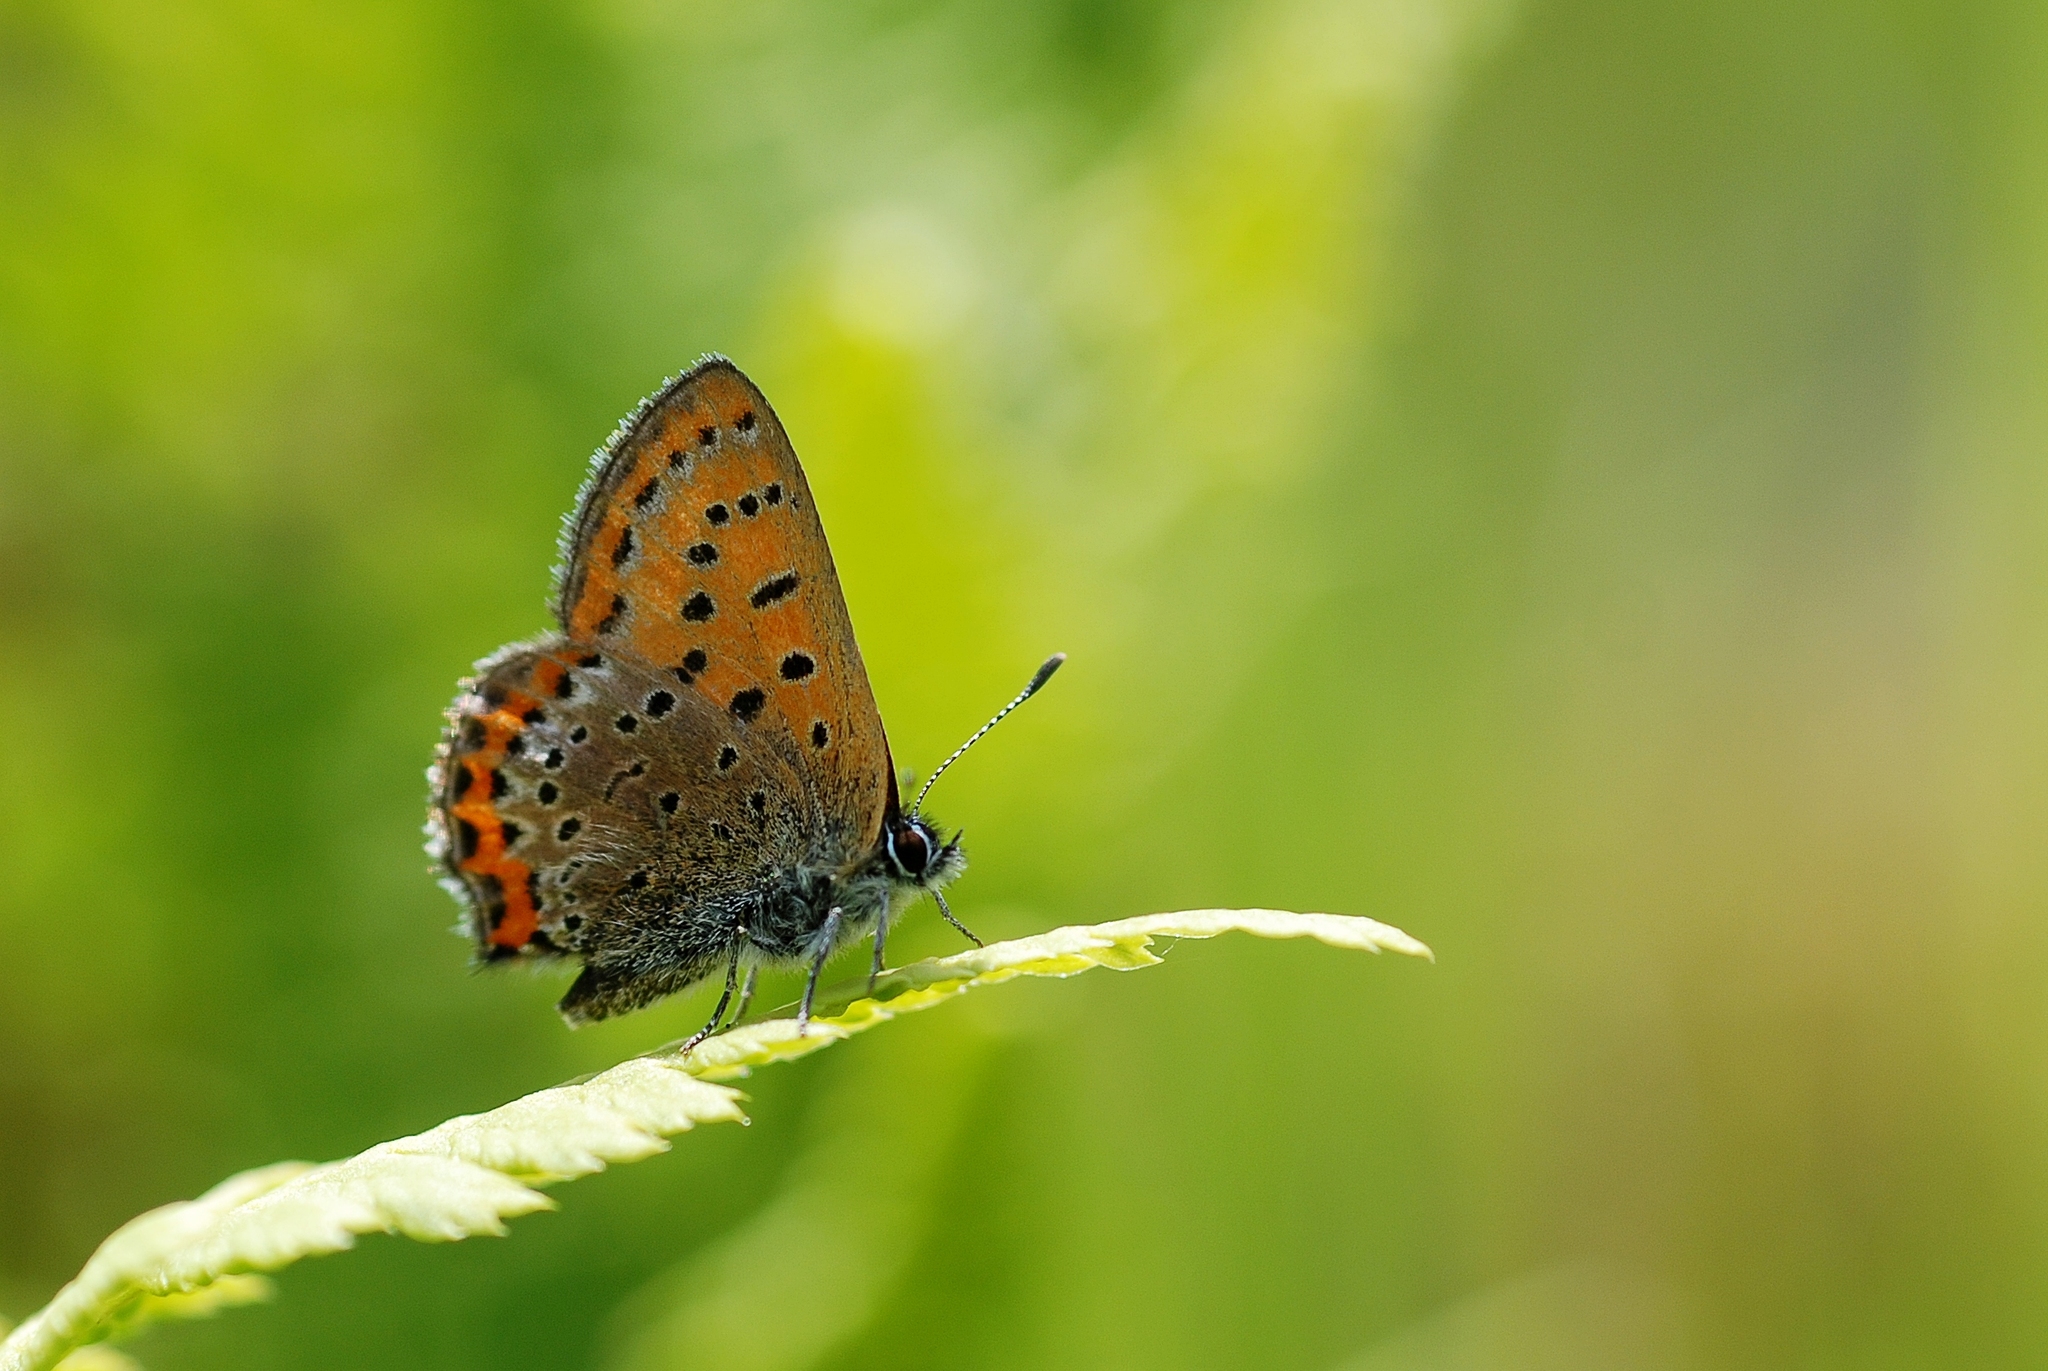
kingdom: Animalia
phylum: Arthropoda
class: Insecta
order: Lepidoptera
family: Lycaenidae
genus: Helleia
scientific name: Helleia helle
